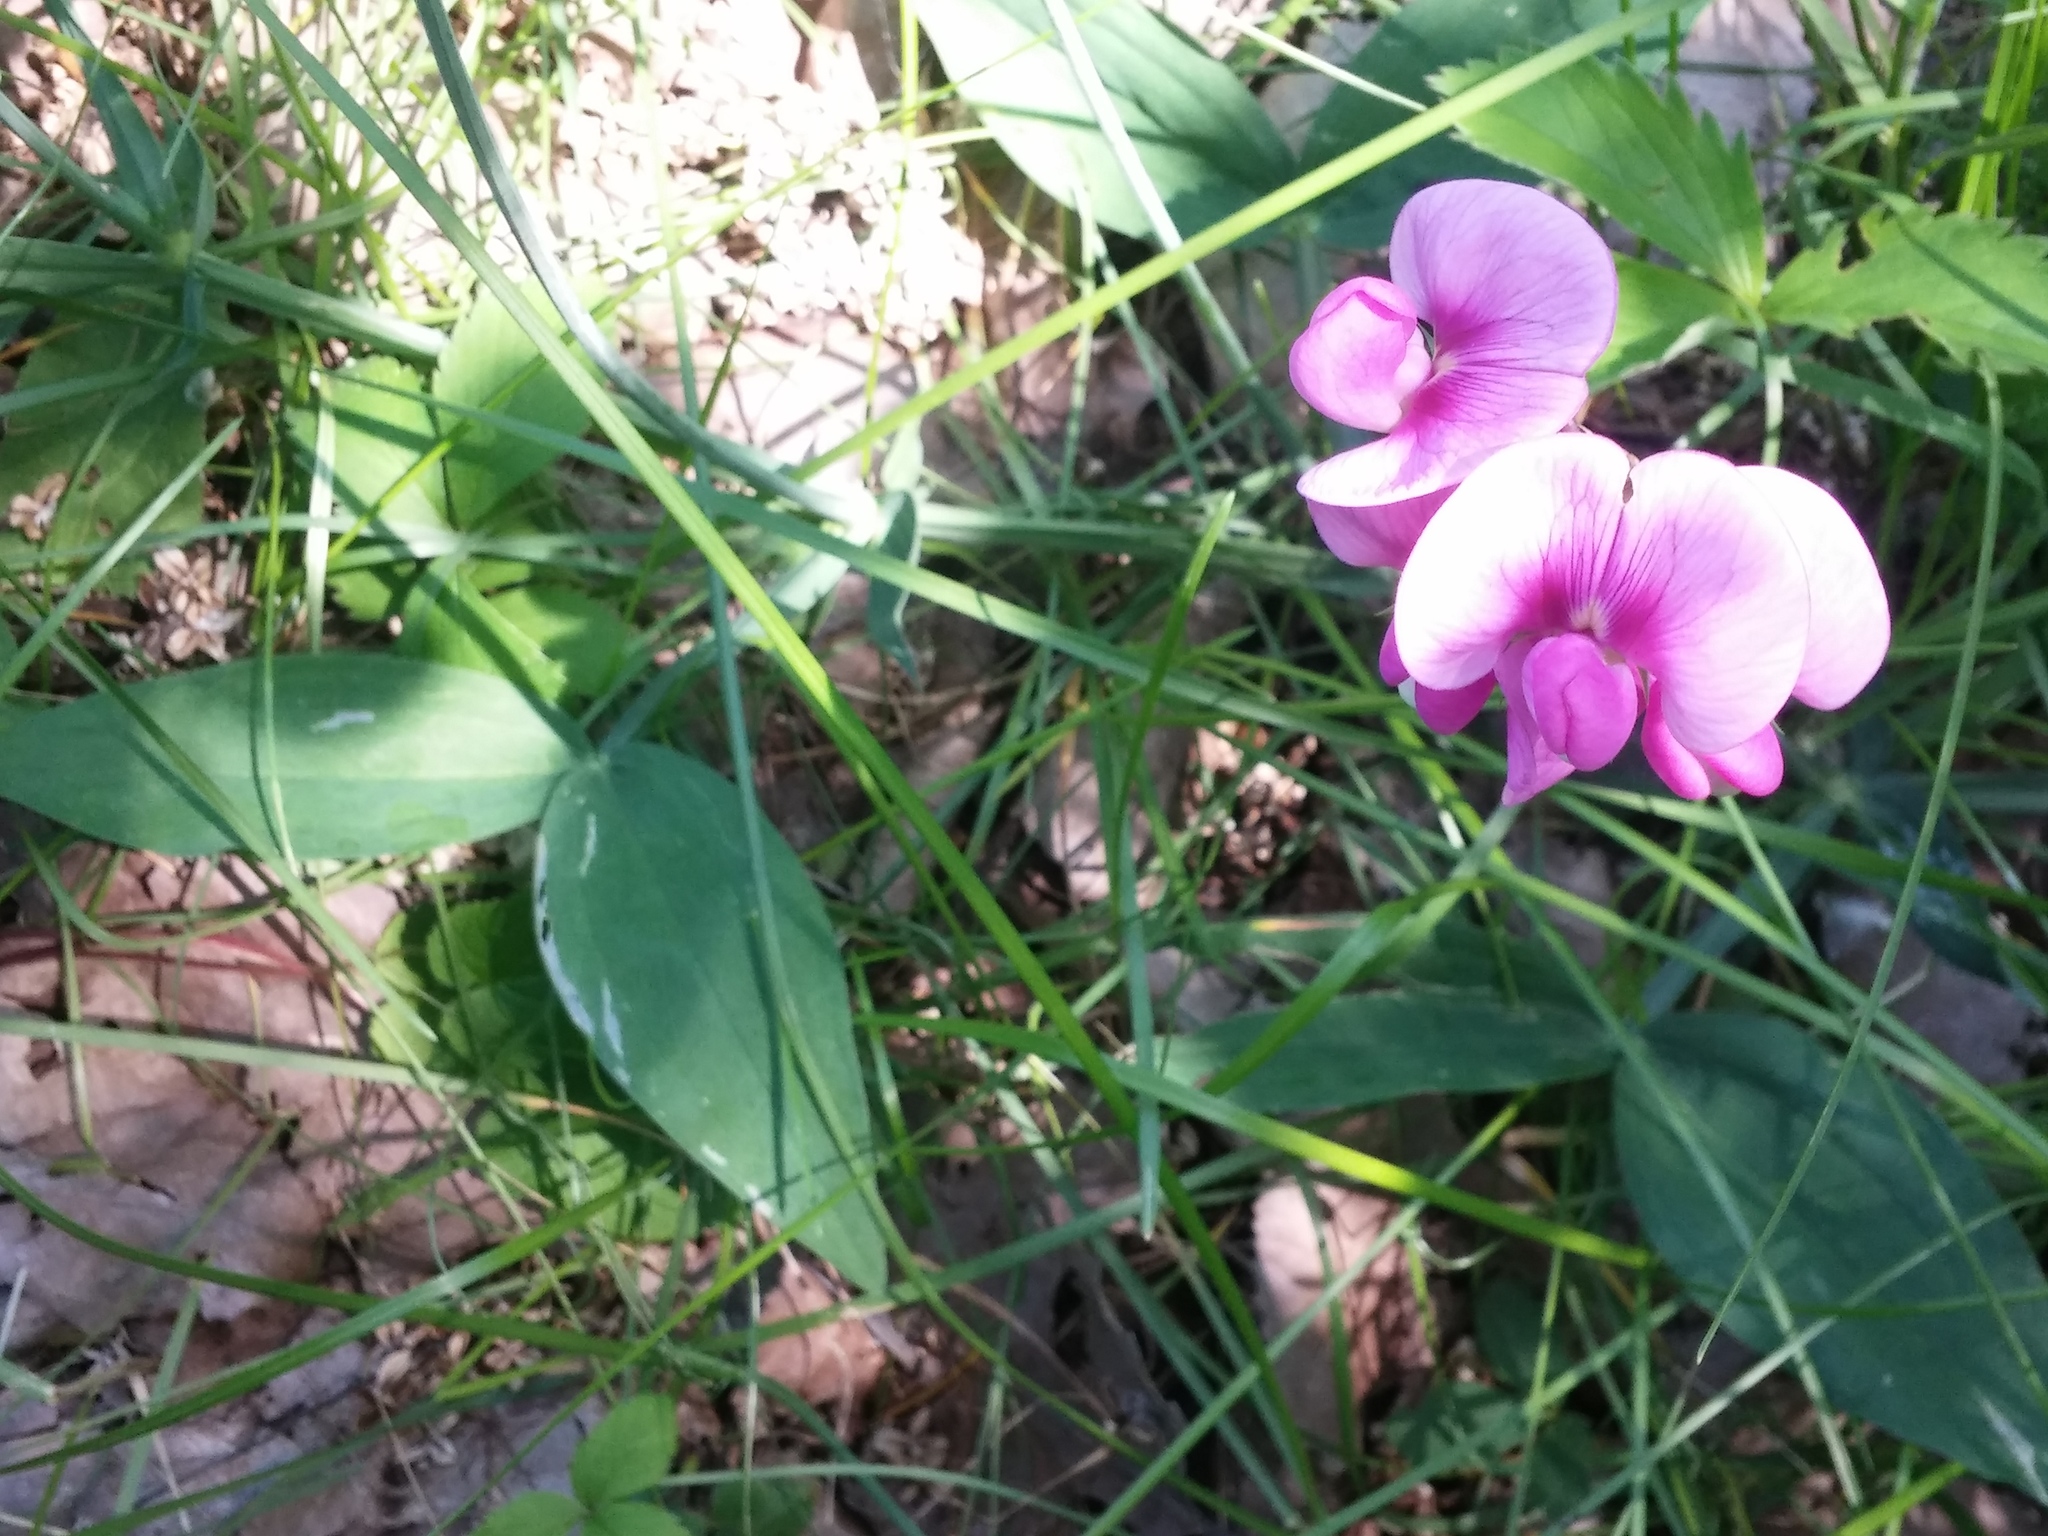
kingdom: Plantae
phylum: Tracheophyta
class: Magnoliopsida
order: Fabales
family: Fabaceae
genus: Lathyrus
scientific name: Lathyrus latifolius
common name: Perennial pea
